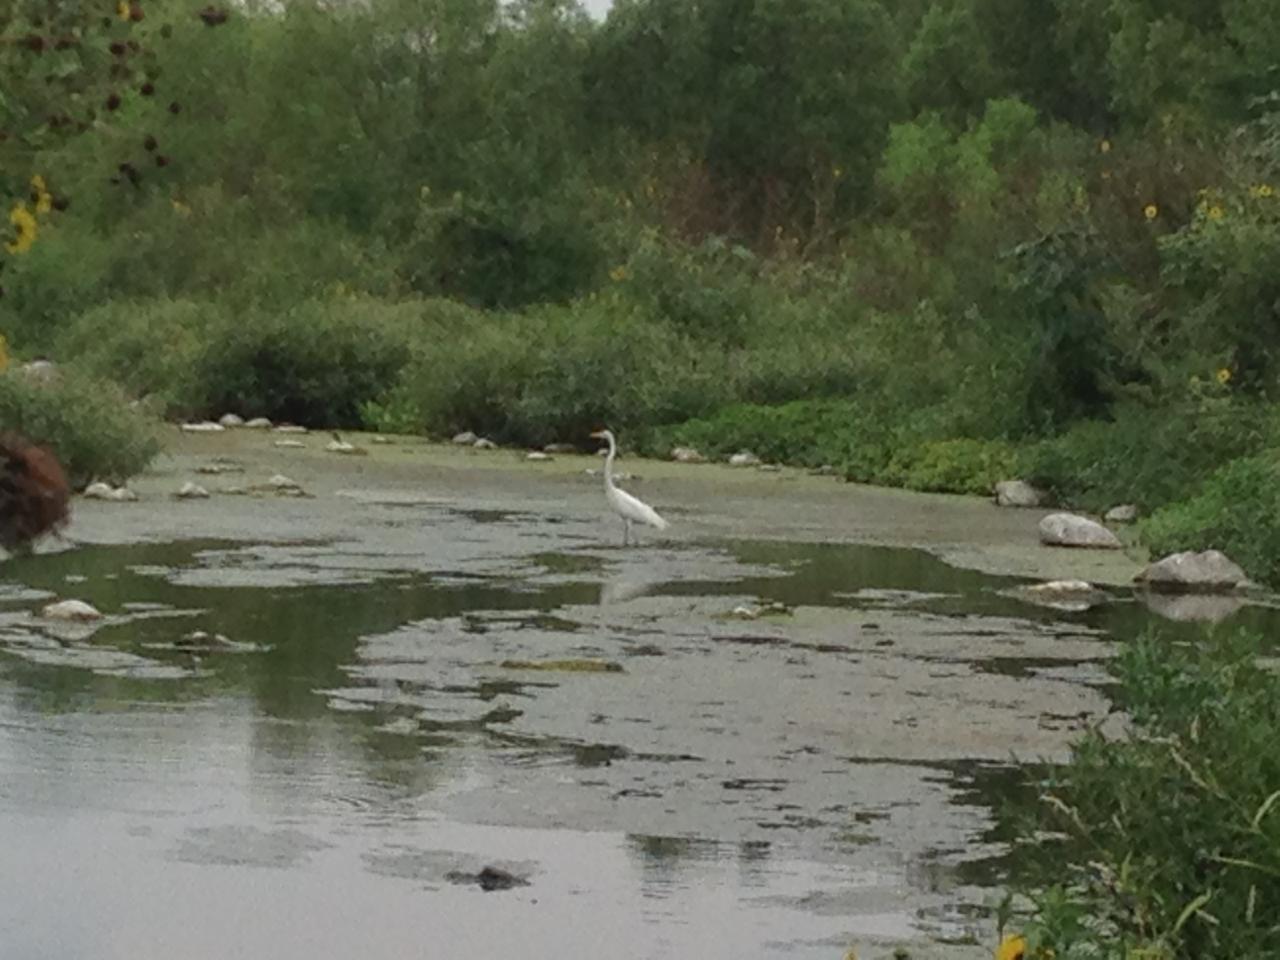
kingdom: Animalia
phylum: Chordata
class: Aves
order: Pelecaniformes
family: Ardeidae
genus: Ardea
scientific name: Ardea alba
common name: Great egret
